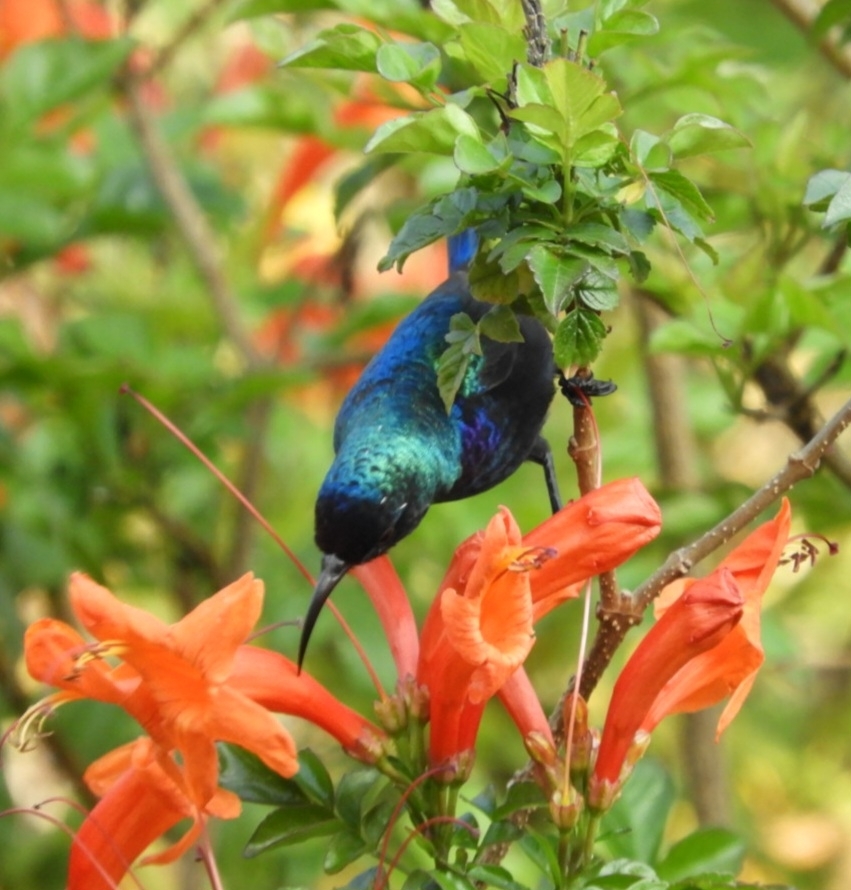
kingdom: Animalia
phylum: Chordata
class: Aves
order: Passeriformes
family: Nectariniidae
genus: Cinnyris
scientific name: Cinnyris osea
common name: Palestine sunbird
